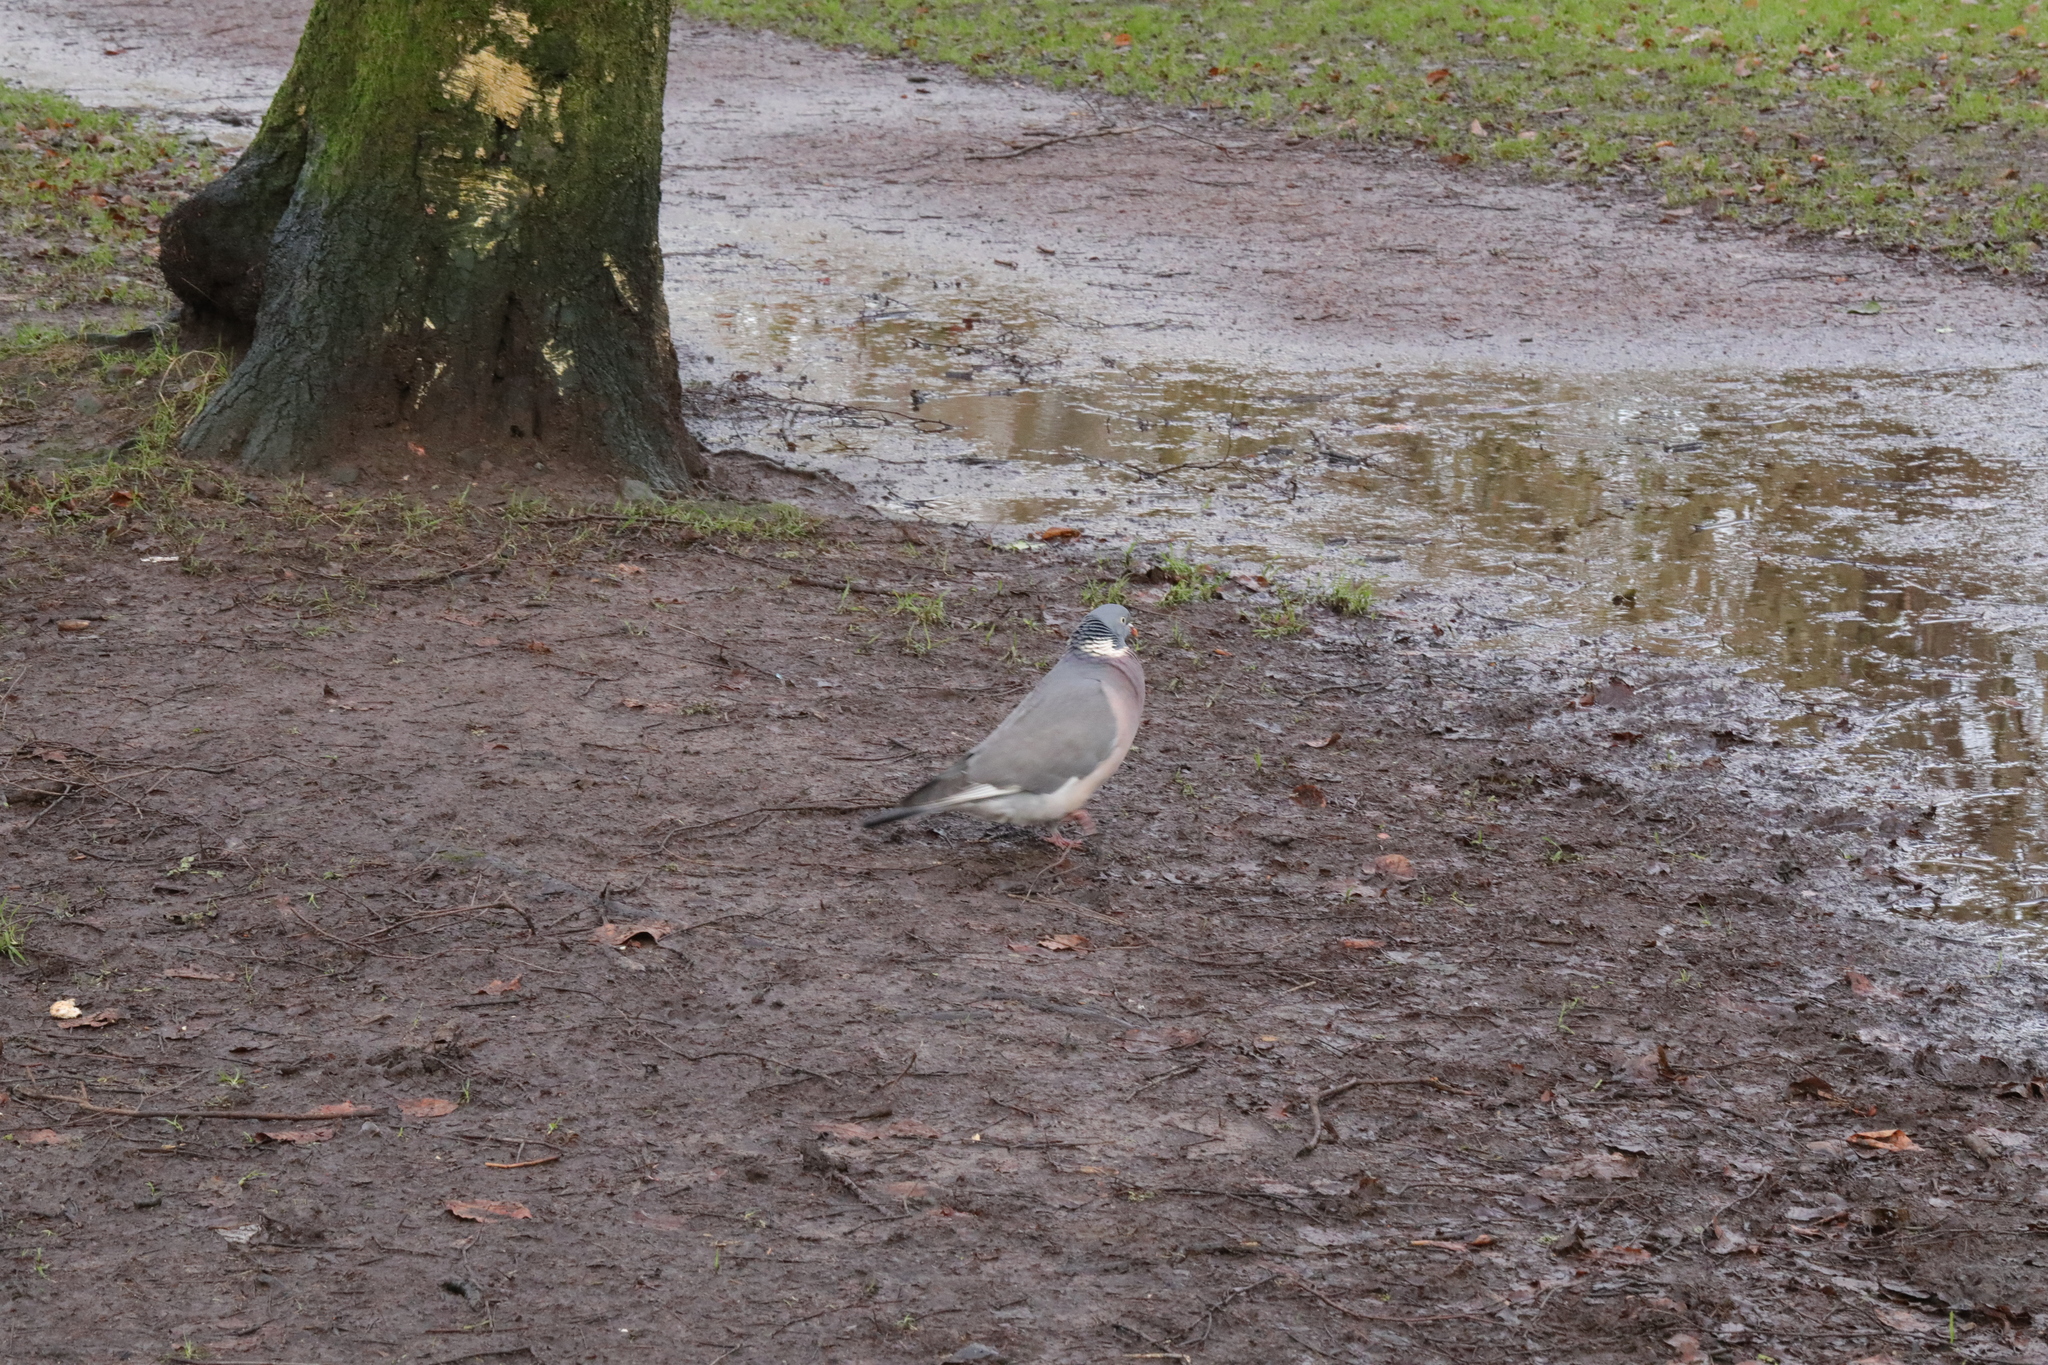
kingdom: Animalia
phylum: Chordata
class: Aves
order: Columbiformes
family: Columbidae
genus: Columba
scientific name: Columba palumbus
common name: Common wood pigeon
